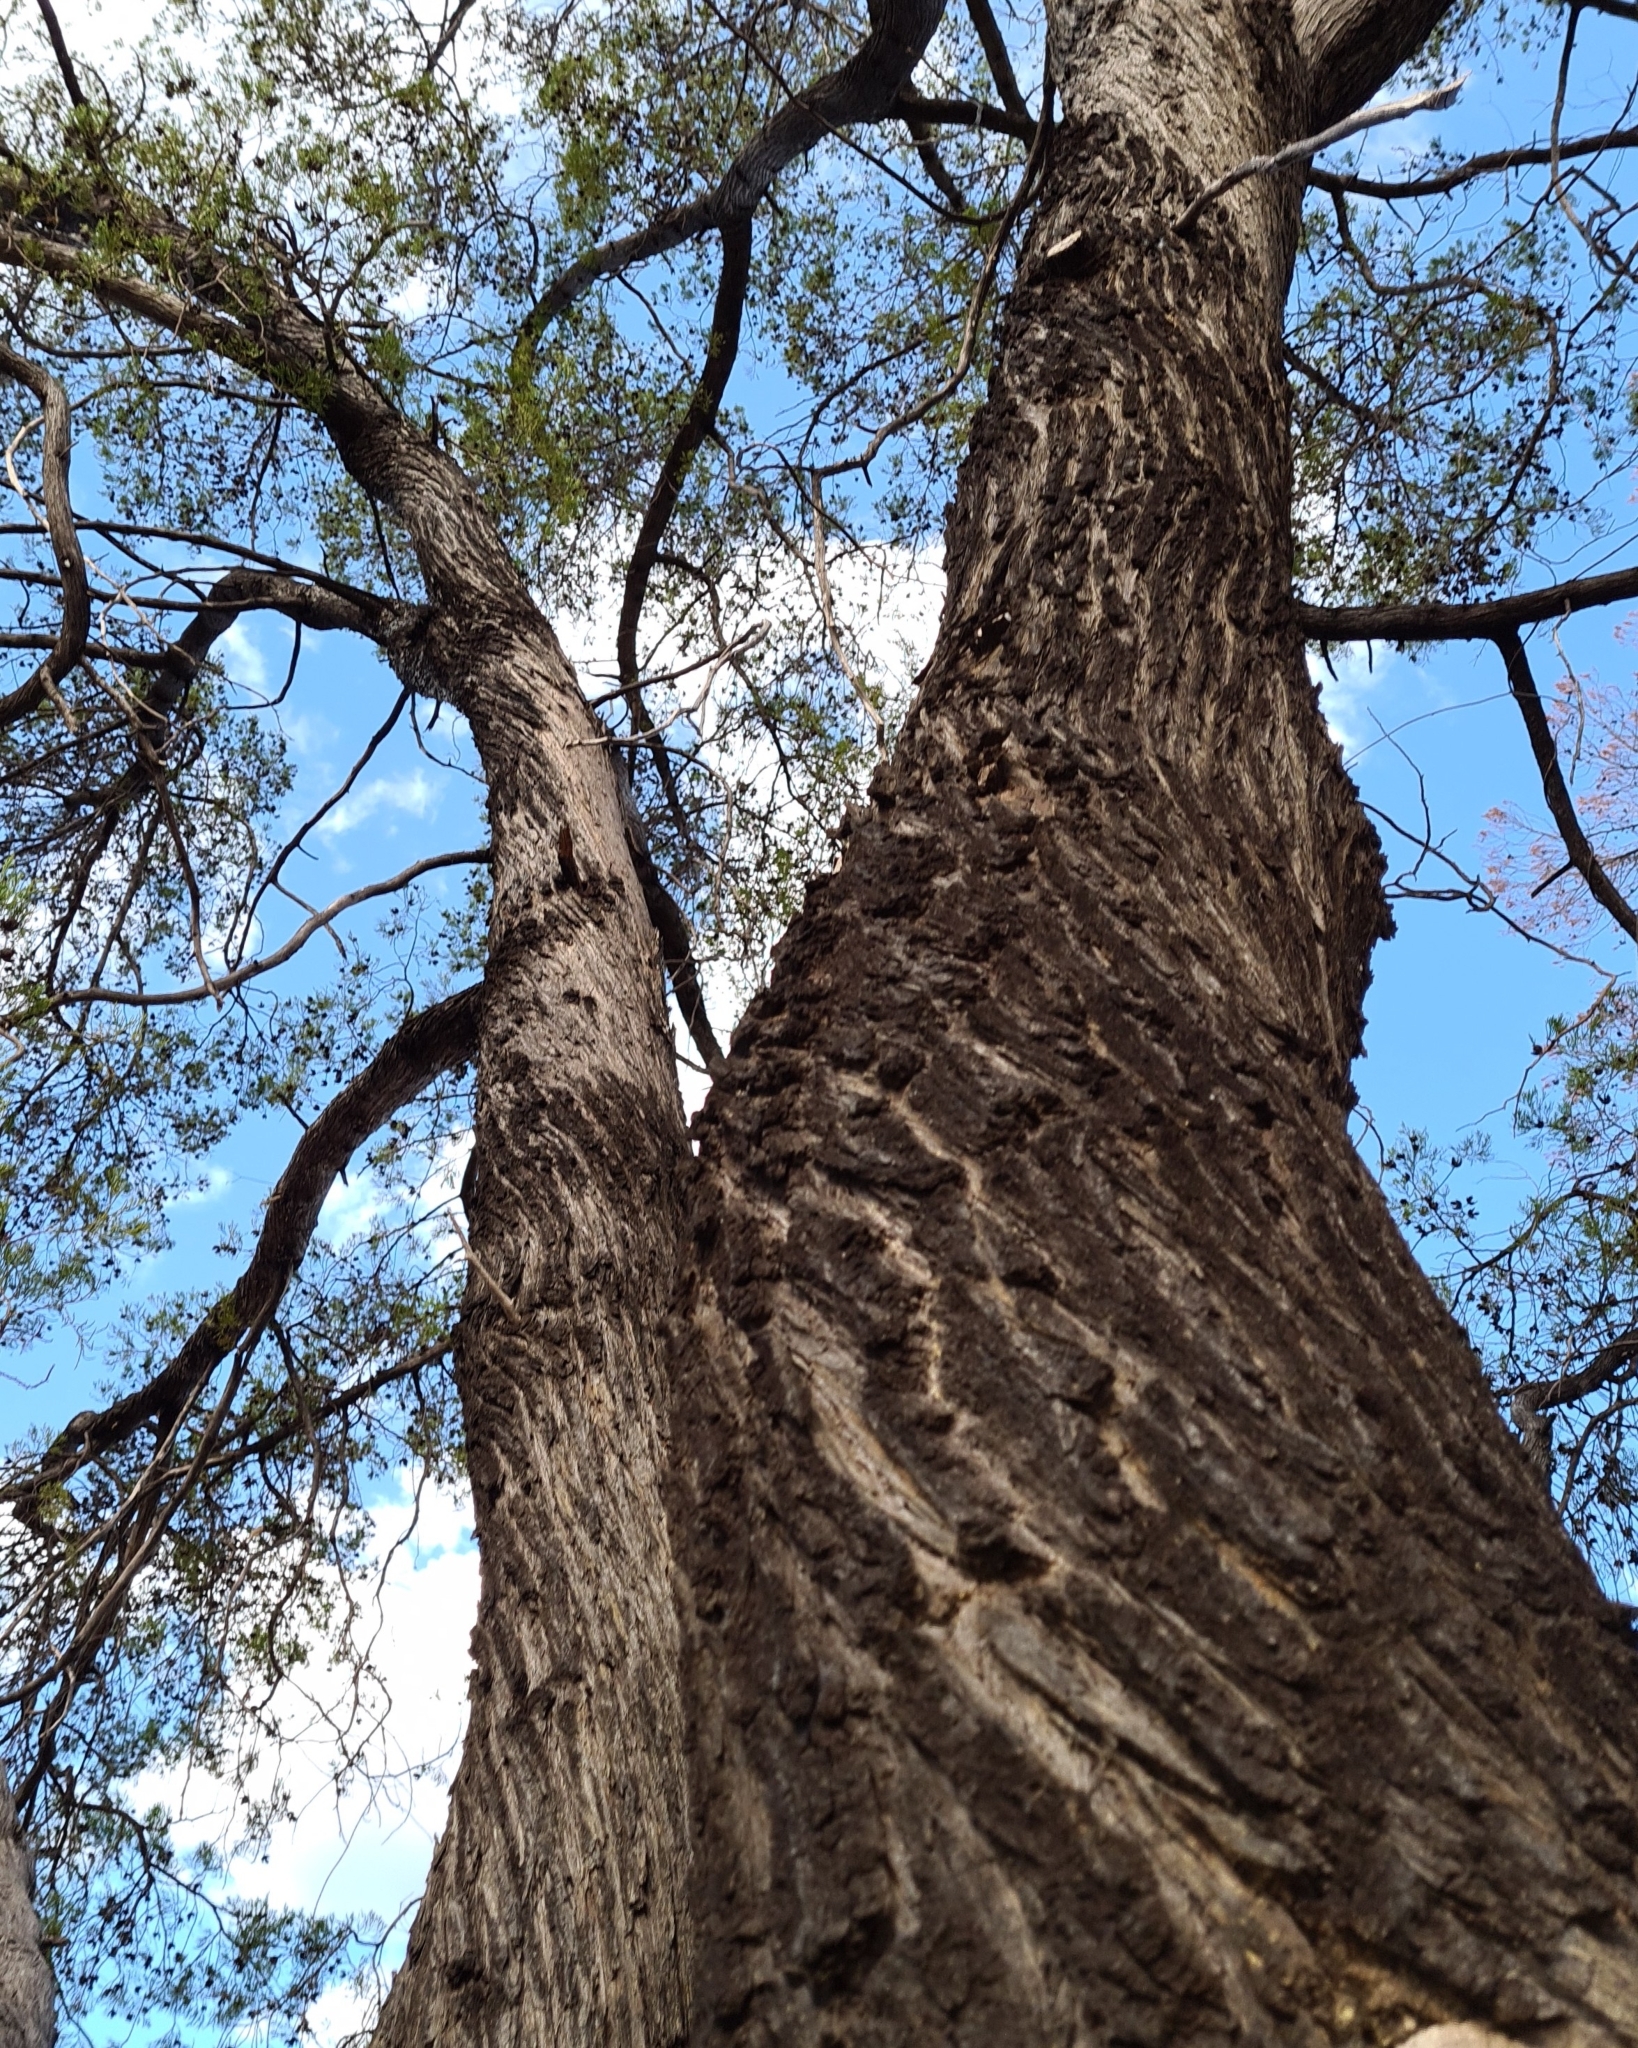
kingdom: Plantae
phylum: Tracheophyta
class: Pinopsida
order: Pinales
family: Cupressaceae
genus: Callitris
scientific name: Callitris columellaris
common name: White cypress-pine
